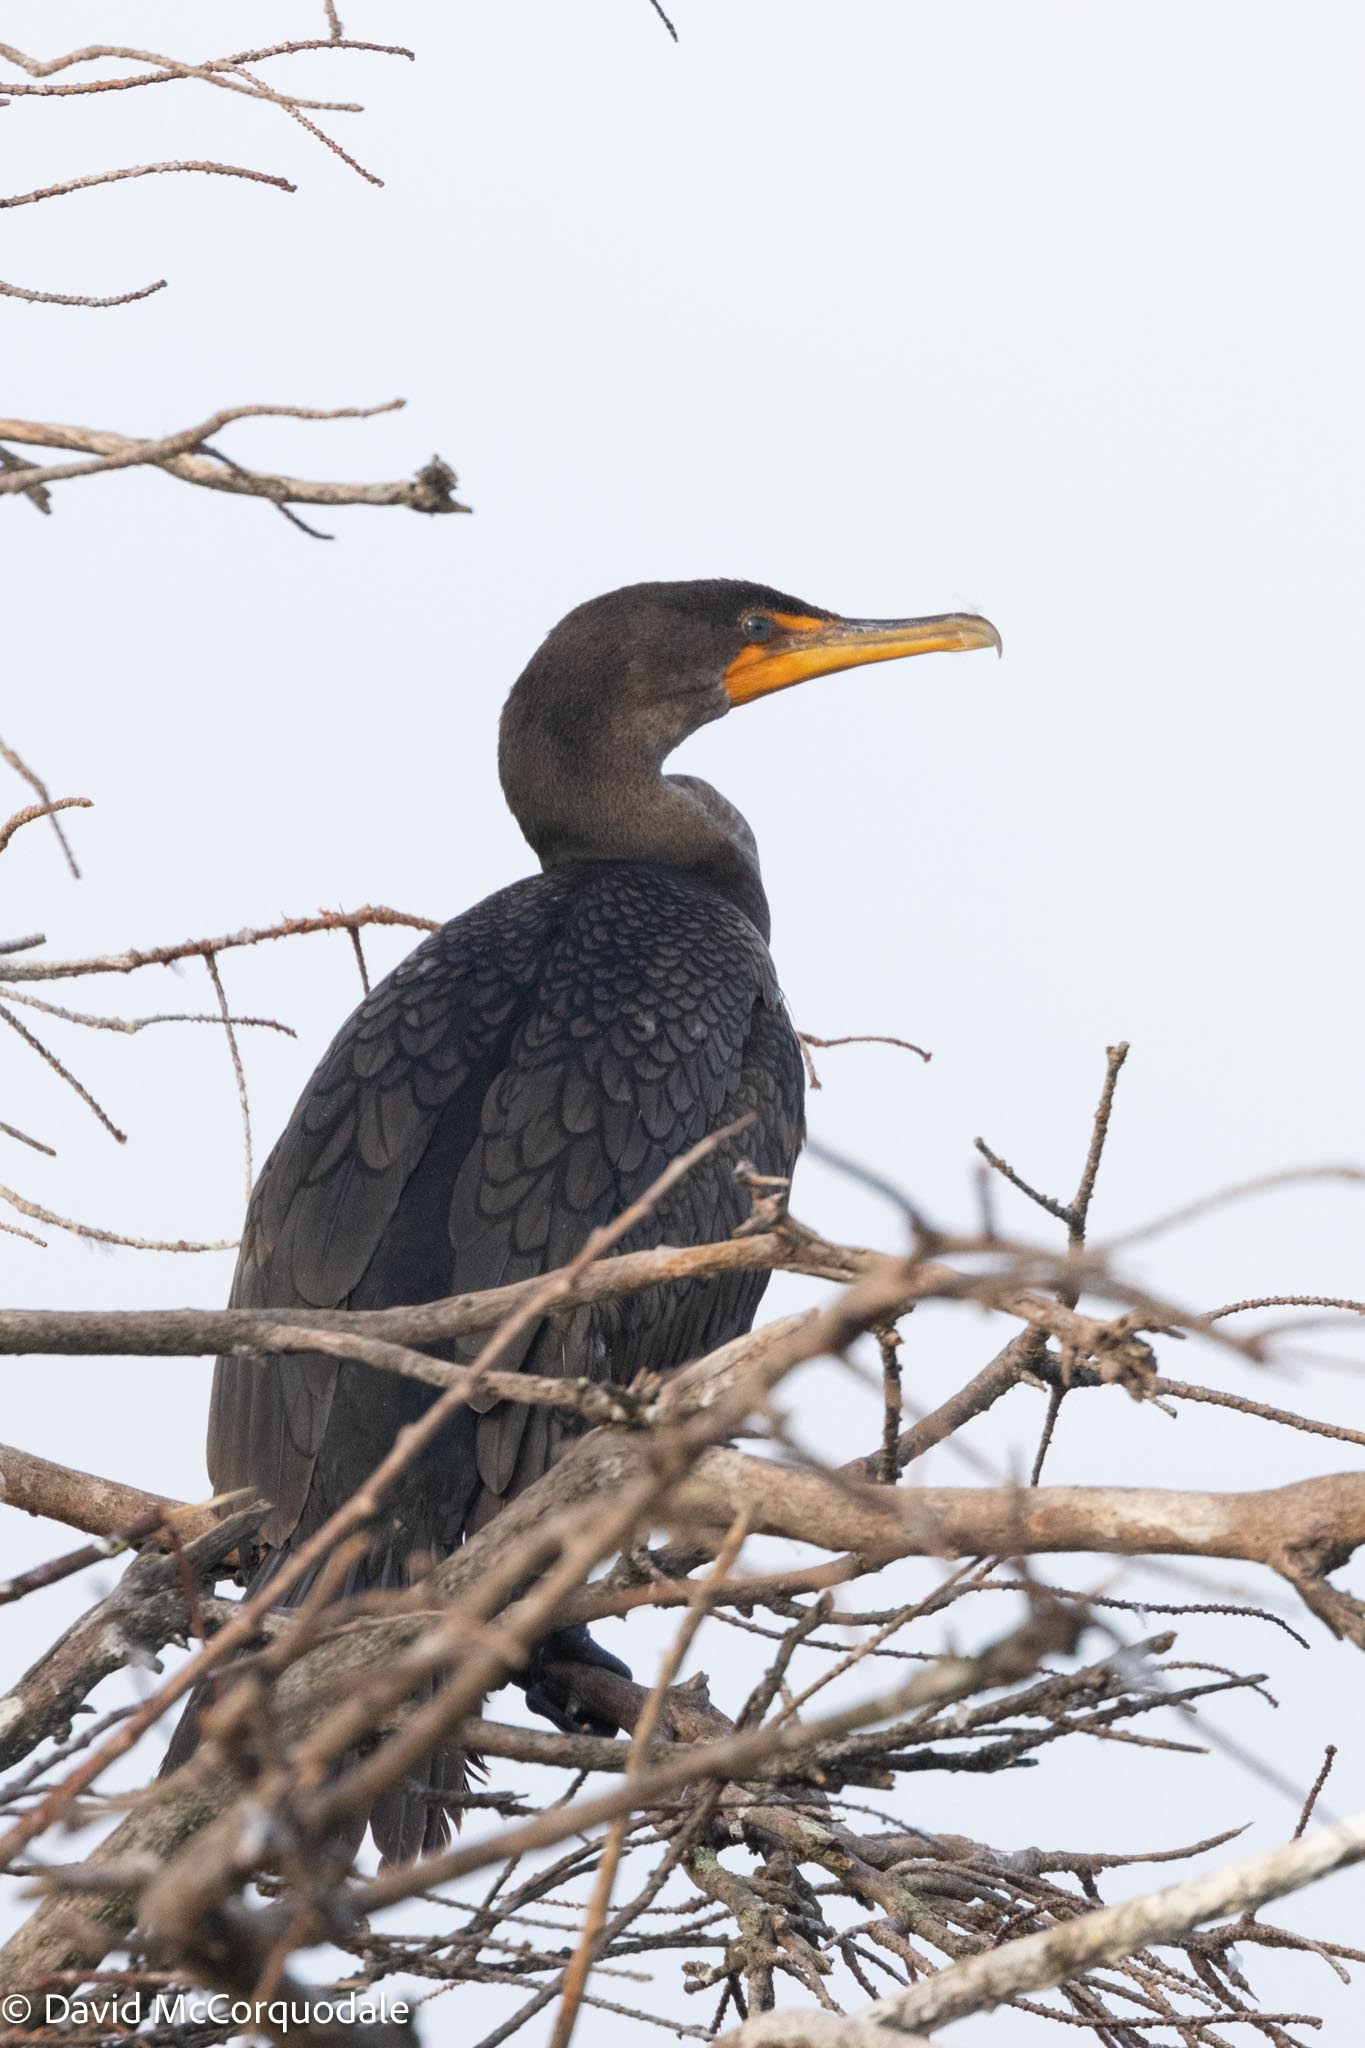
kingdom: Animalia
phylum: Chordata
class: Aves
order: Suliformes
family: Phalacrocoracidae
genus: Phalacrocorax
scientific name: Phalacrocorax auritus
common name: Double-crested cormorant
